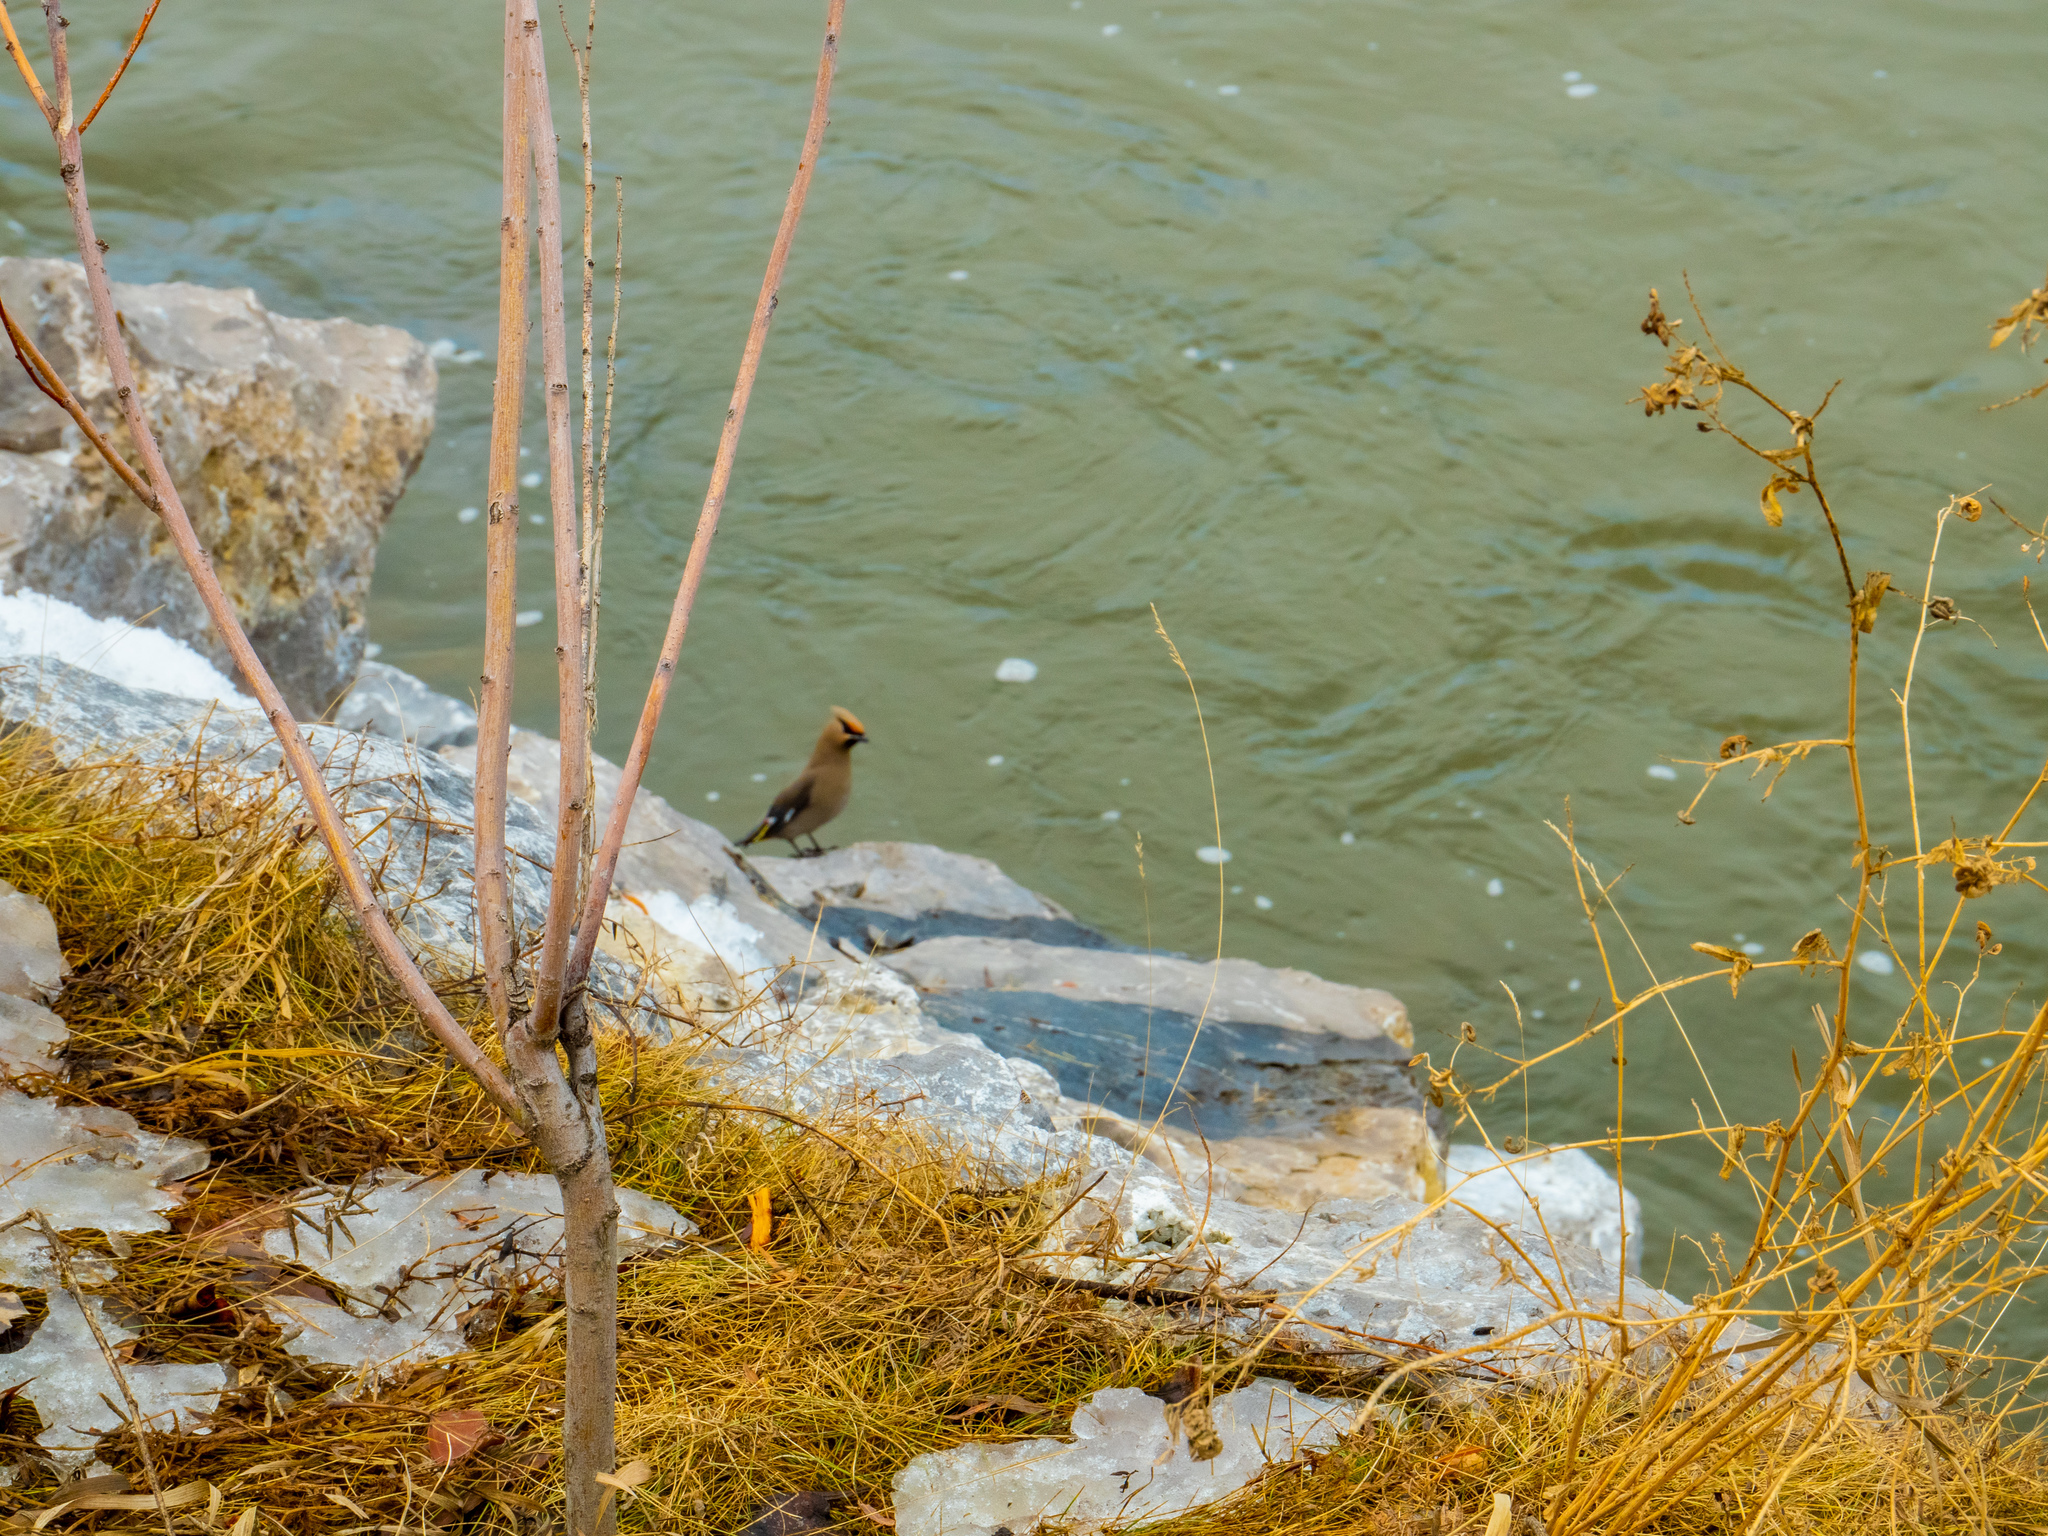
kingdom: Animalia
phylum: Chordata
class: Aves
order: Passeriformes
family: Bombycillidae
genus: Bombycilla
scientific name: Bombycilla garrulus
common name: Bohemian waxwing
